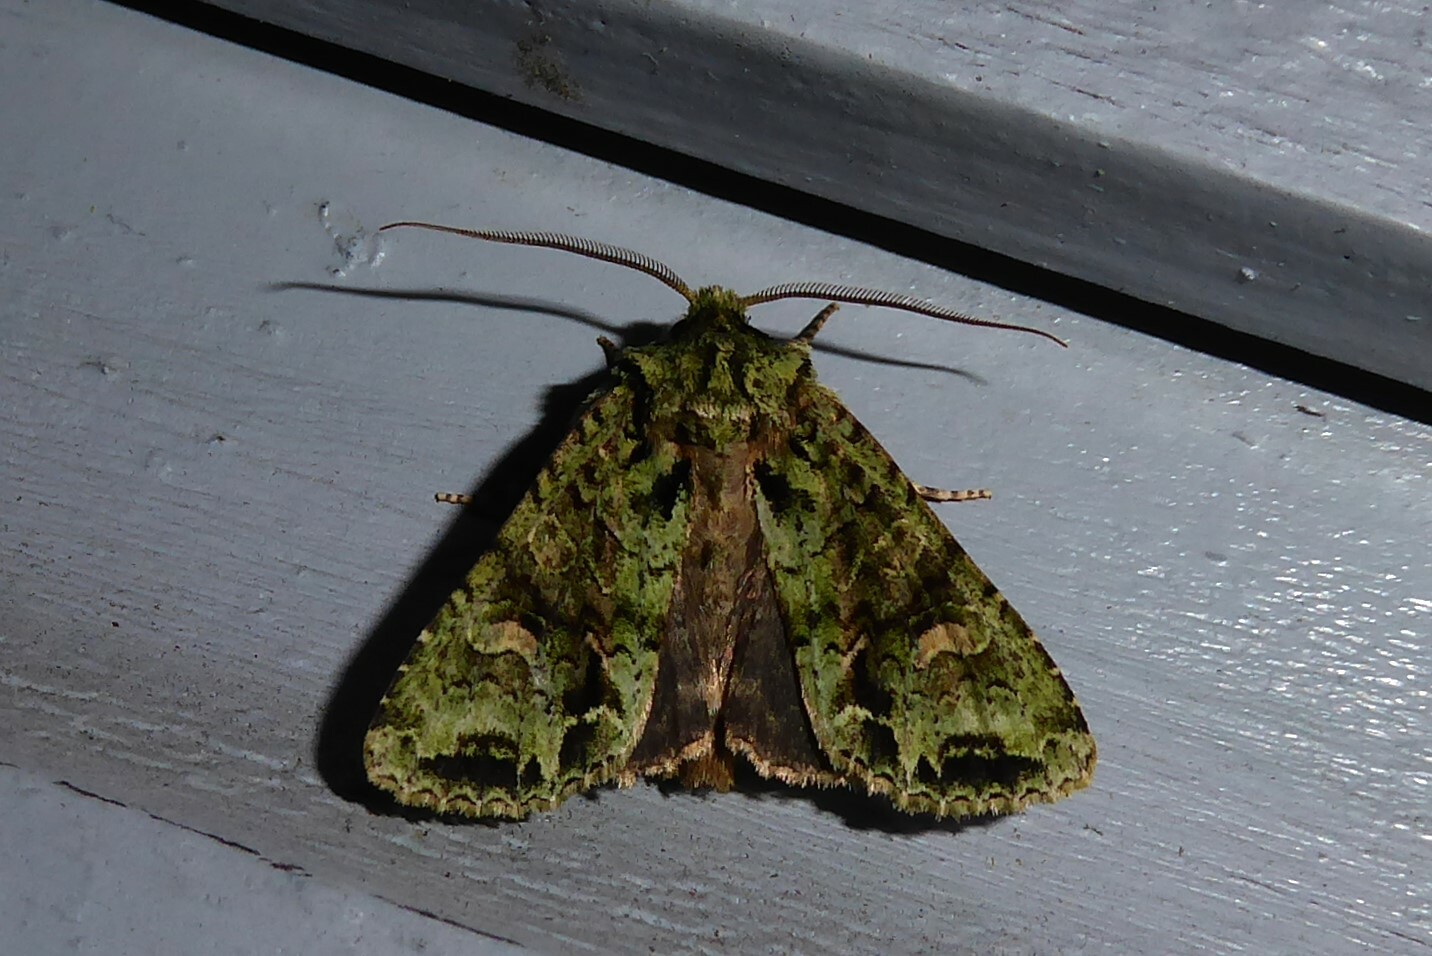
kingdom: Animalia
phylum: Arthropoda
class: Insecta
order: Lepidoptera
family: Noctuidae
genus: Ichneutica
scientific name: Ichneutica
